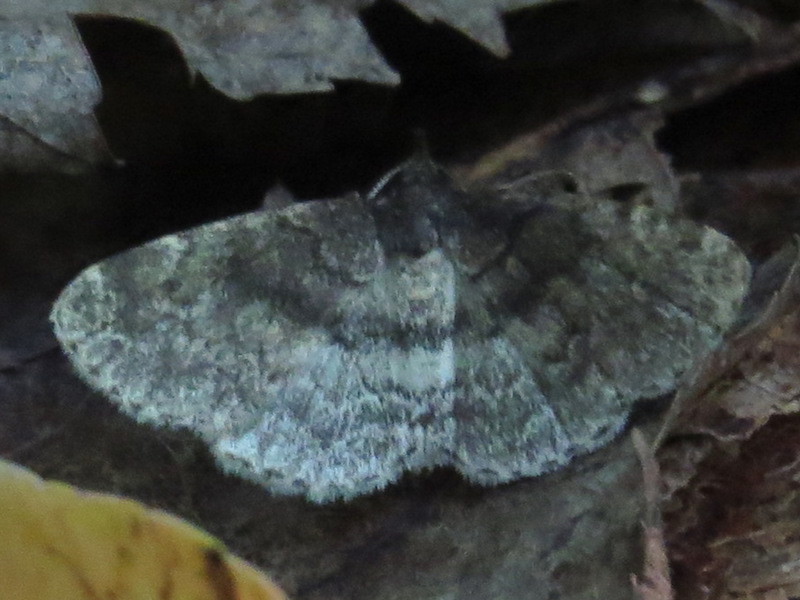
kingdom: Animalia
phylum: Arthropoda
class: Insecta
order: Lepidoptera
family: Erebidae
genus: Idia
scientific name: Idia forbesii
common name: Forbes' idia moth
